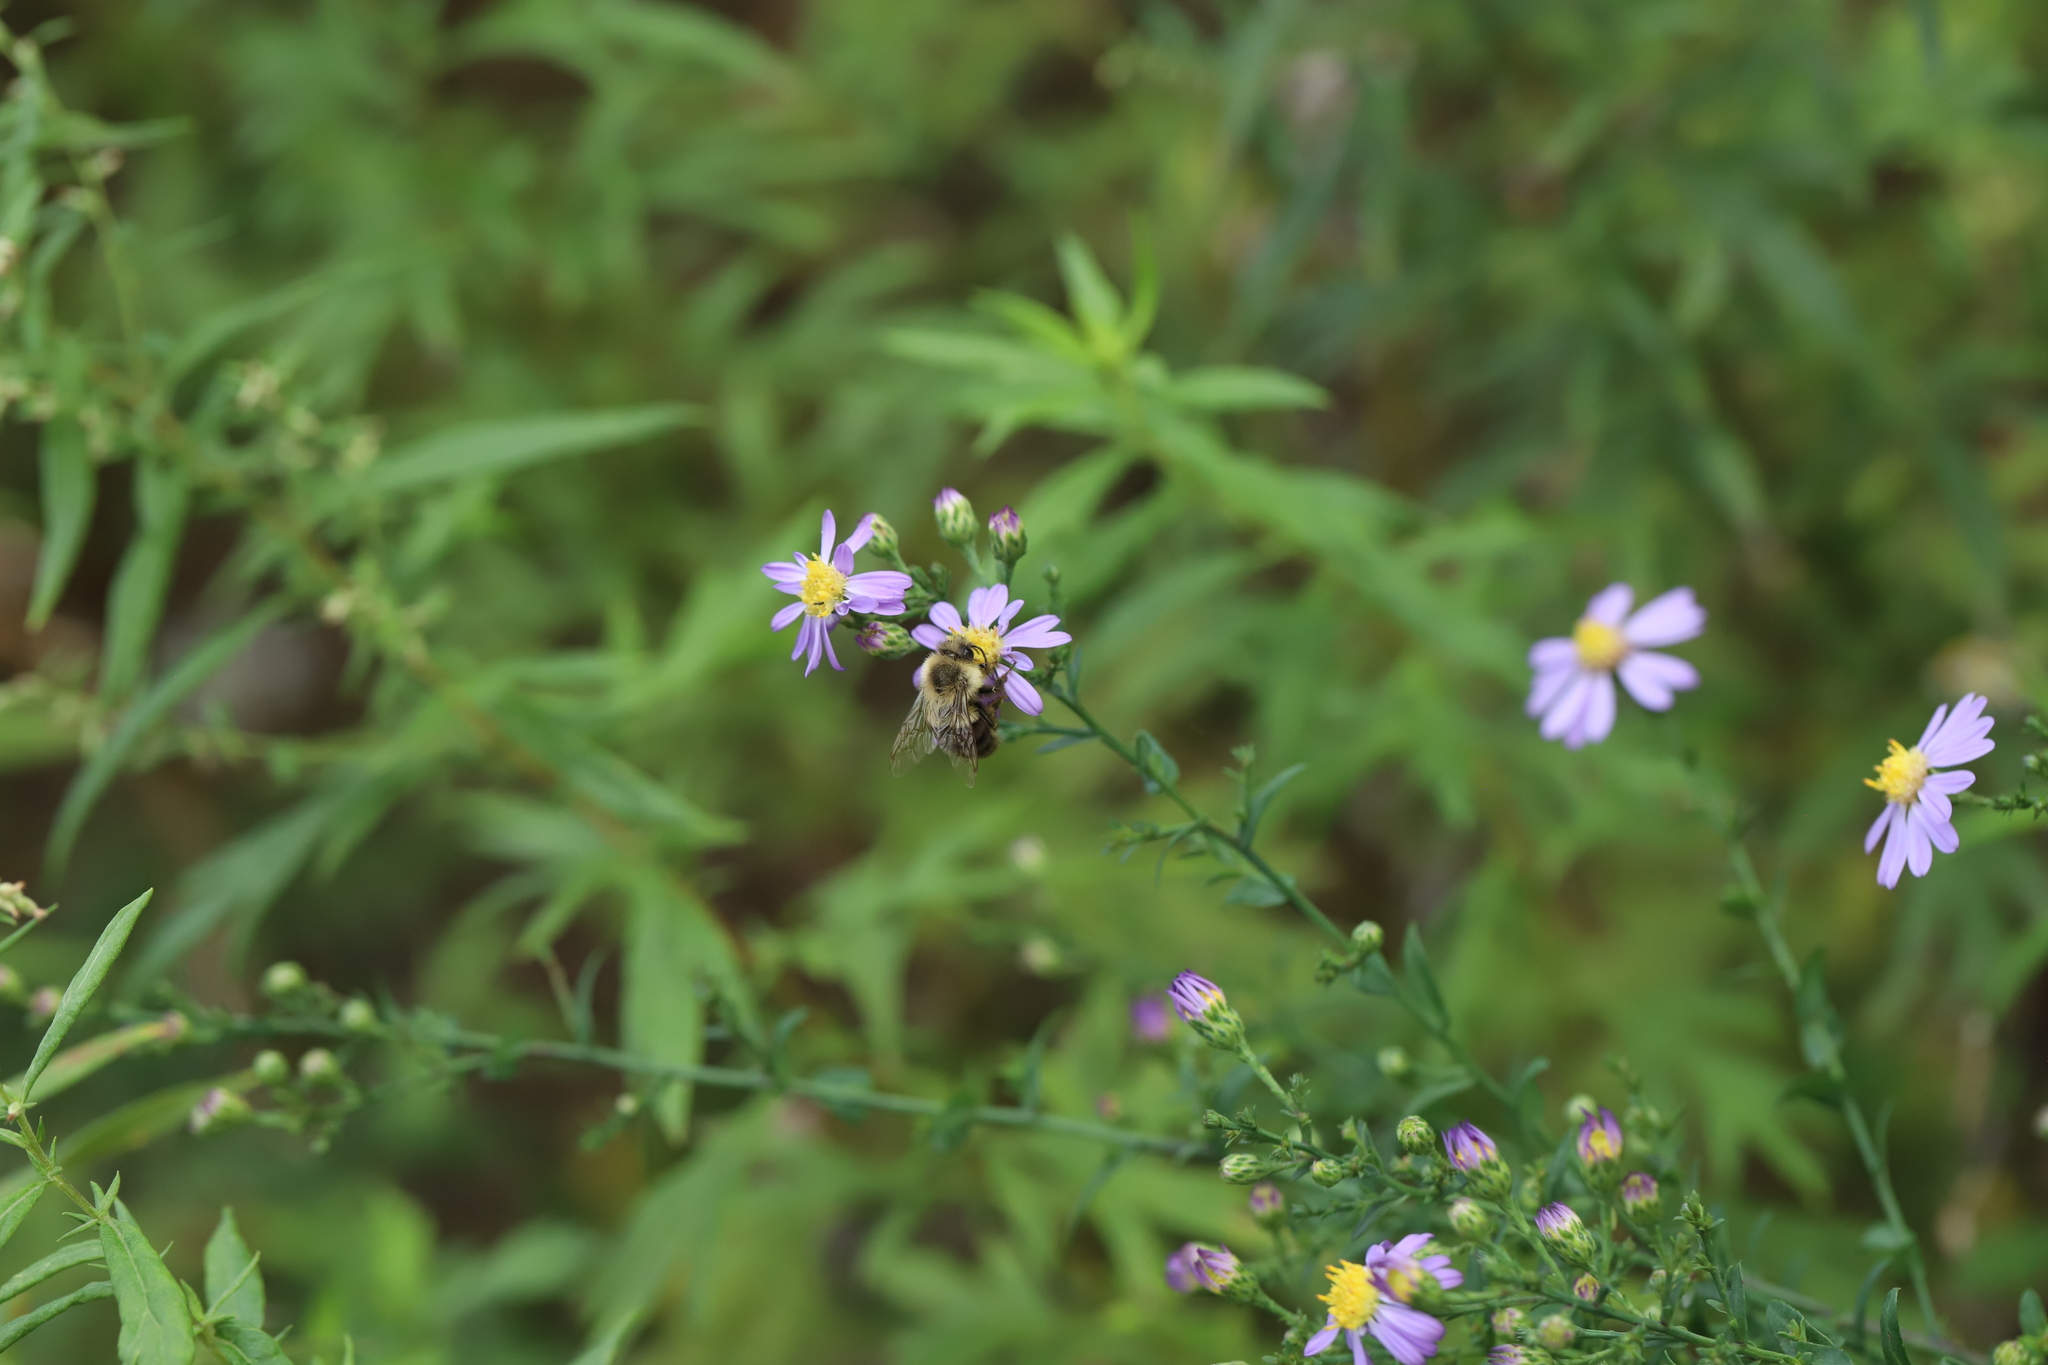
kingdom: Animalia
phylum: Arthropoda
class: Insecta
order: Hymenoptera
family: Apidae
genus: Bombus
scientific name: Bombus impatiens
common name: Common eastern bumble bee
